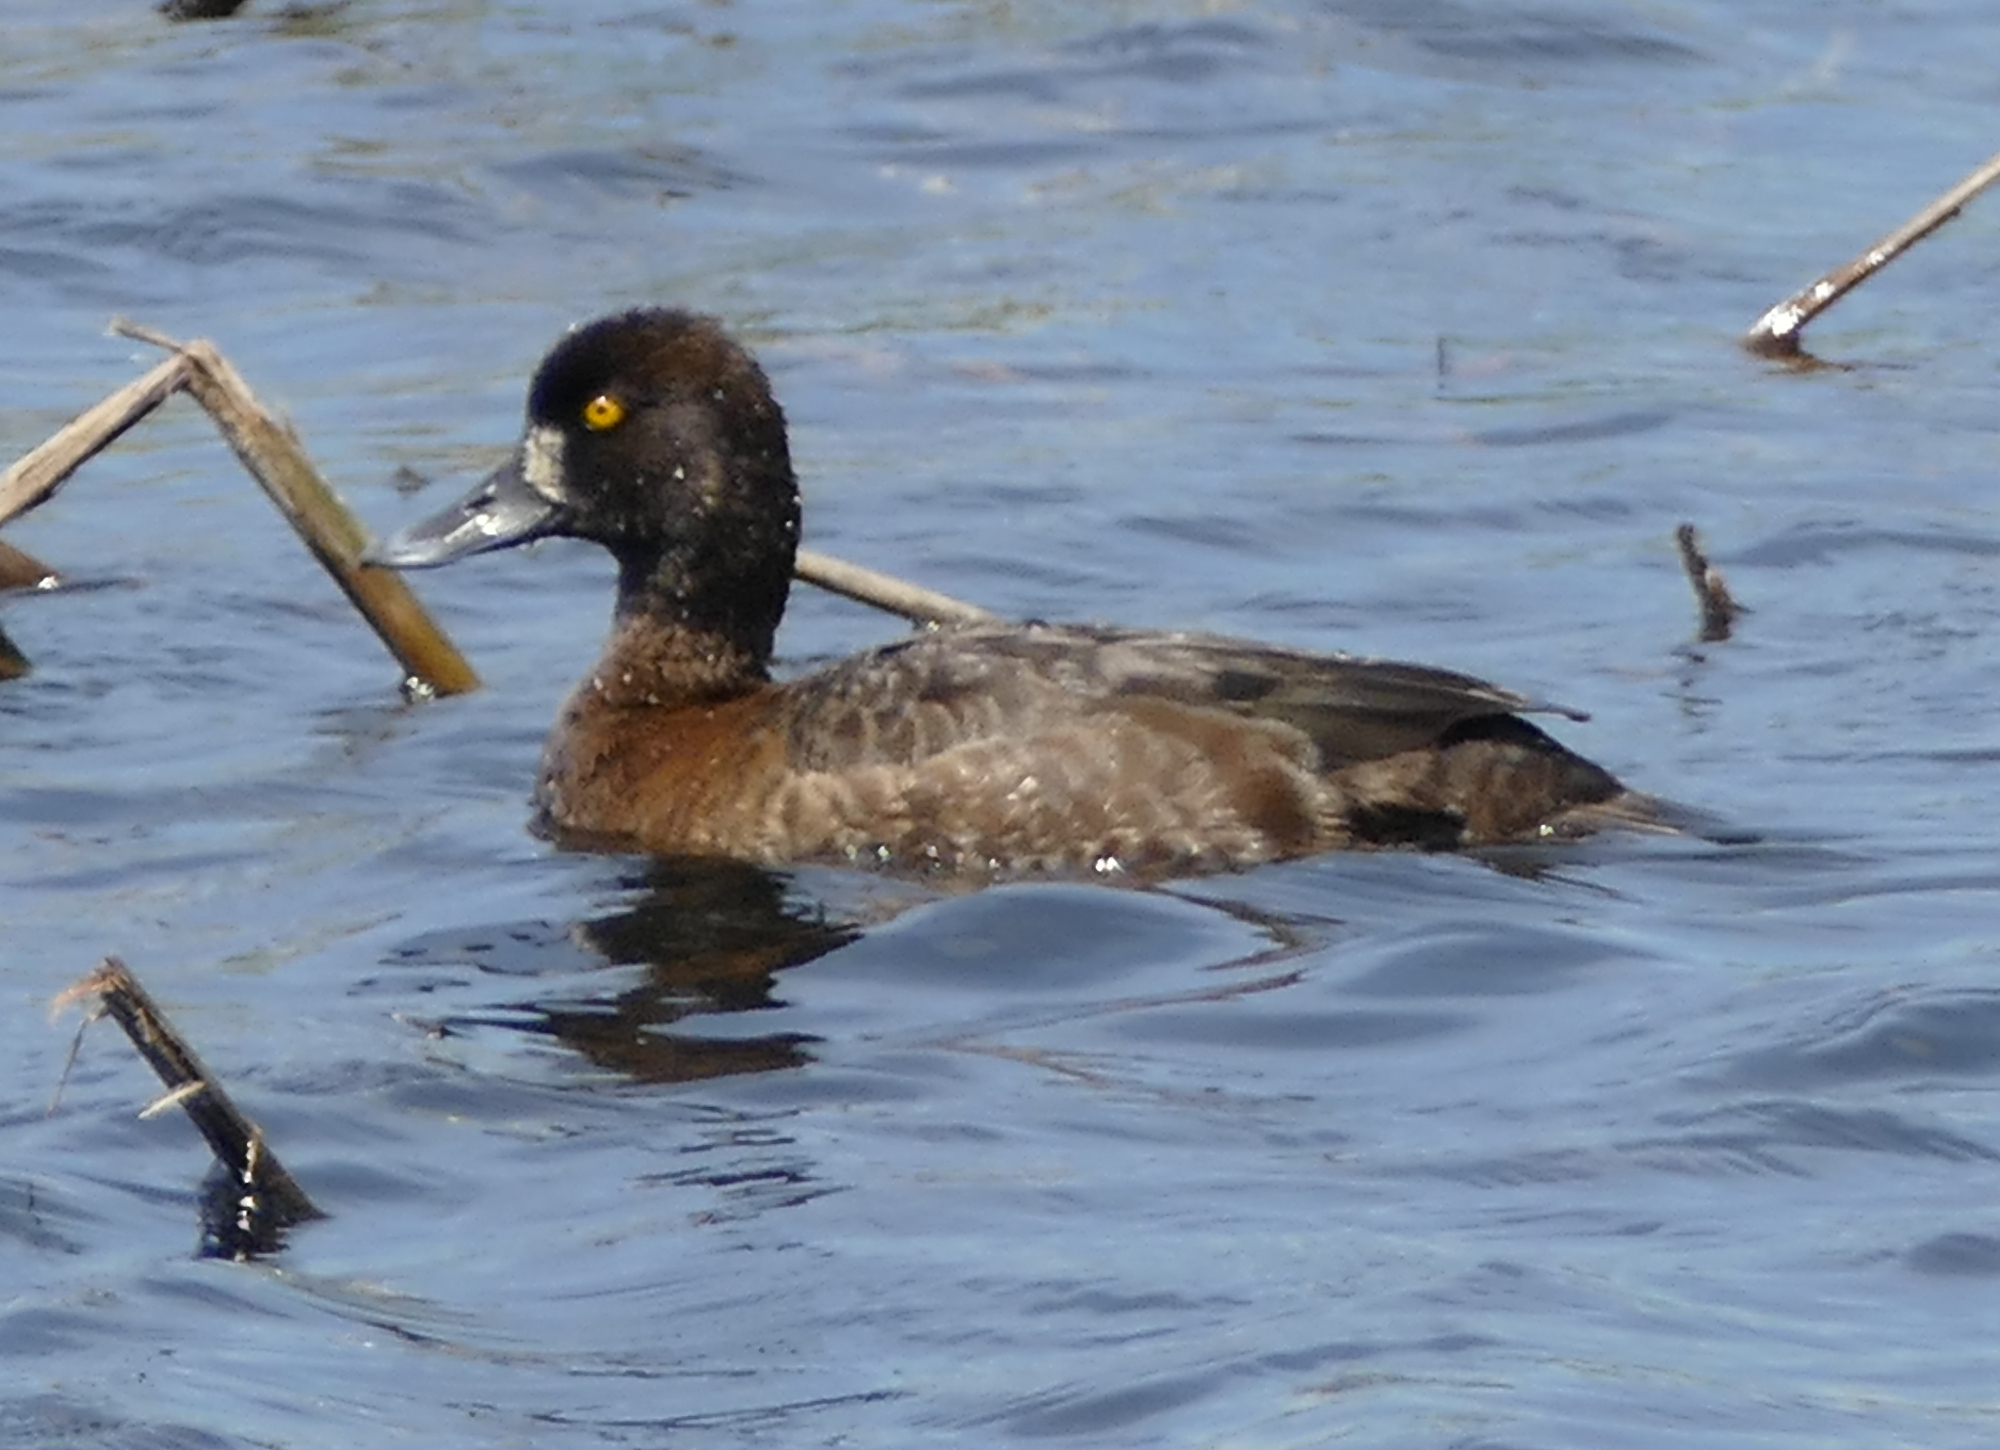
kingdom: Animalia
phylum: Chordata
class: Aves
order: Anseriformes
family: Anatidae
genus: Aythya
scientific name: Aythya affinis
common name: Lesser scaup
